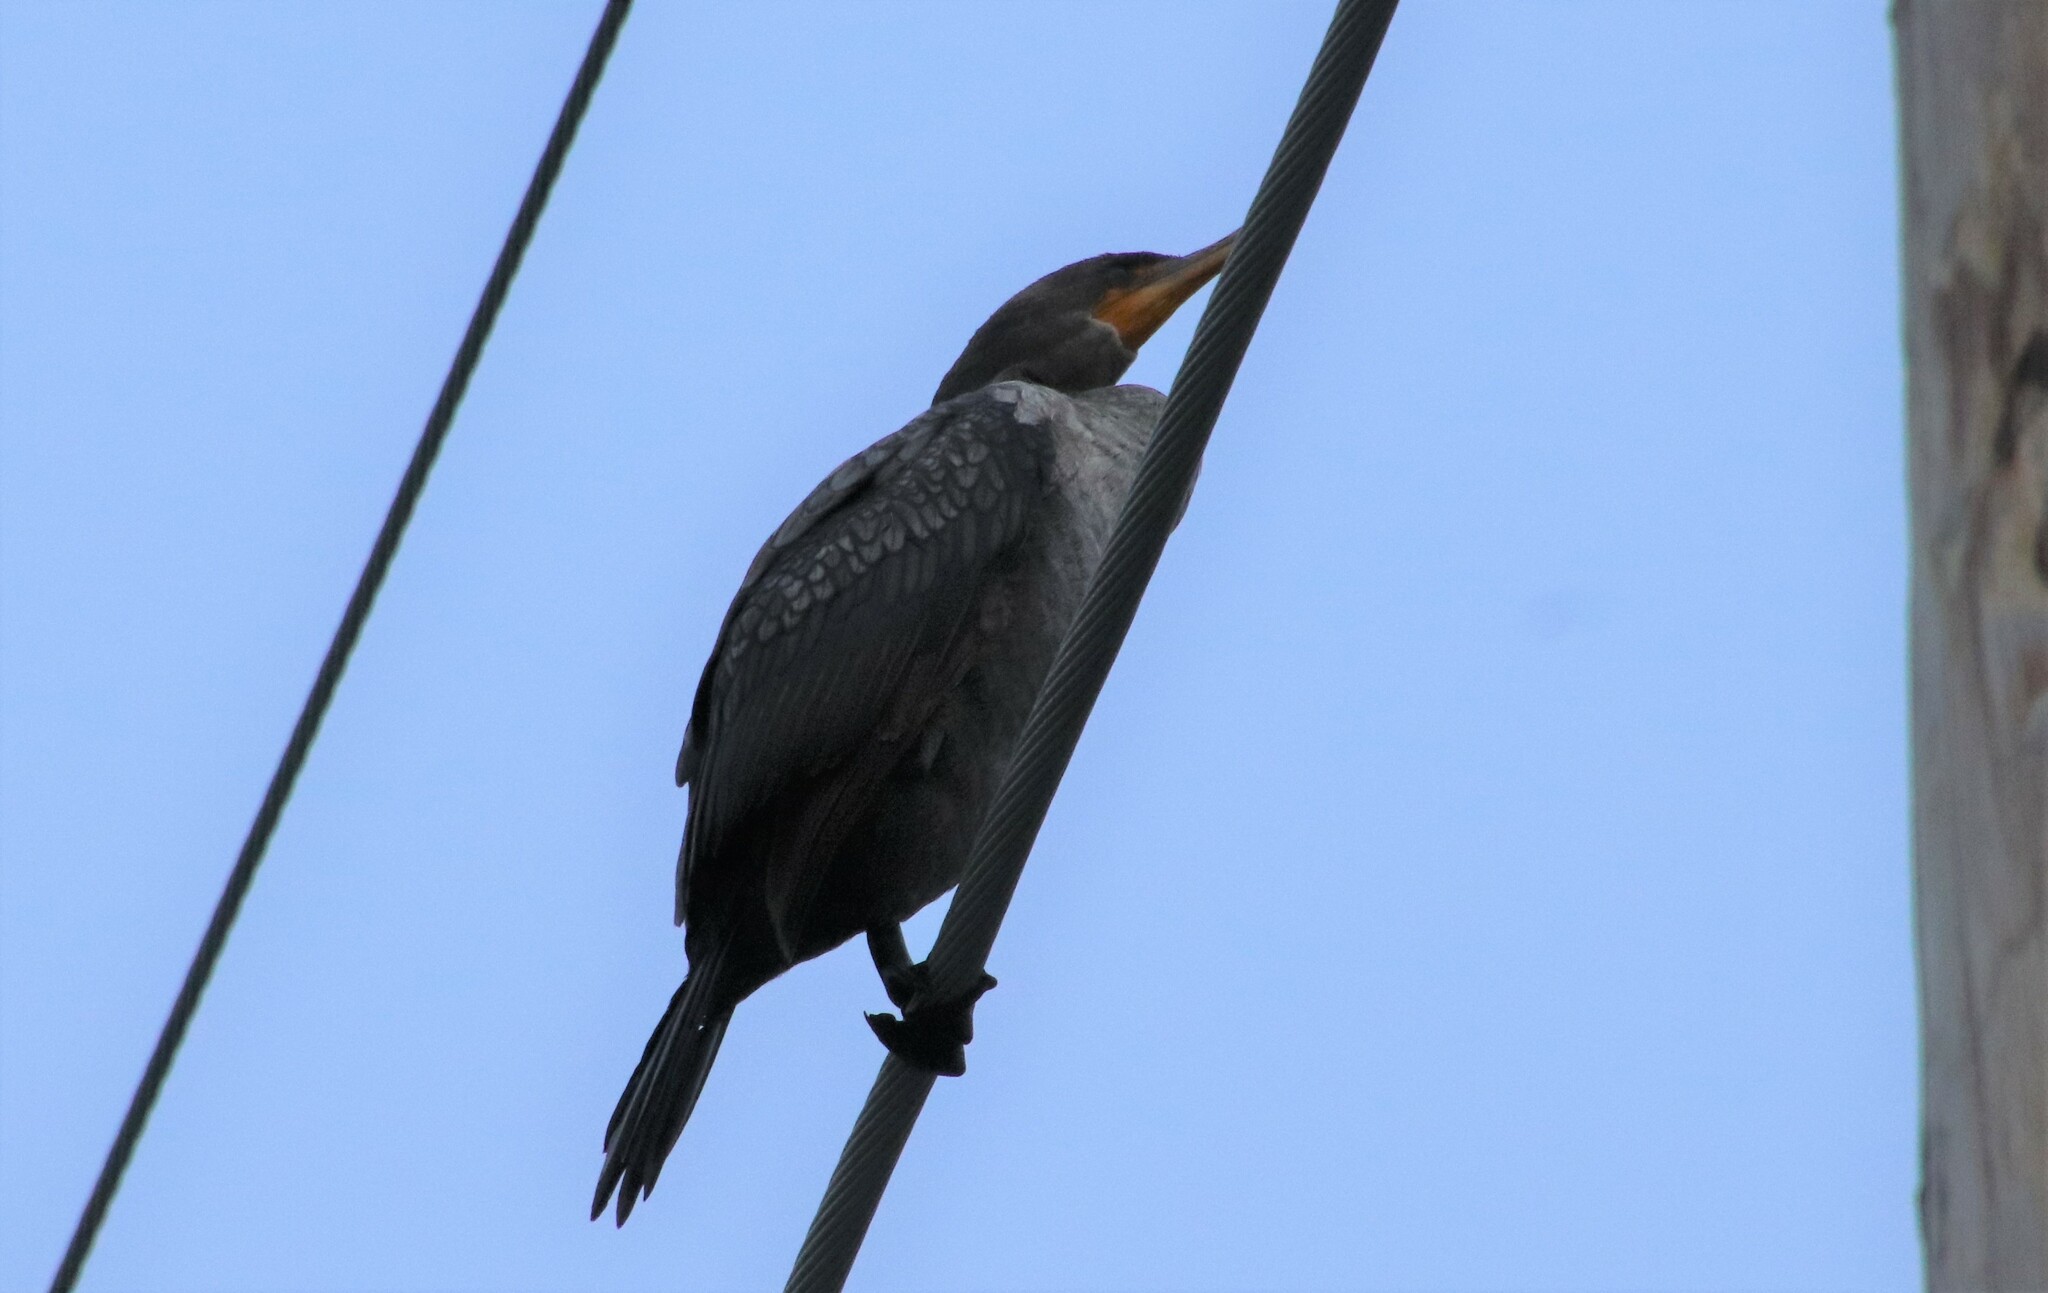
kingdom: Animalia
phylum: Chordata
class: Aves
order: Suliformes
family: Phalacrocoracidae
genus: Phalacrocorax
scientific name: Phalacrocorax auritus
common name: Double-crested cormorant
